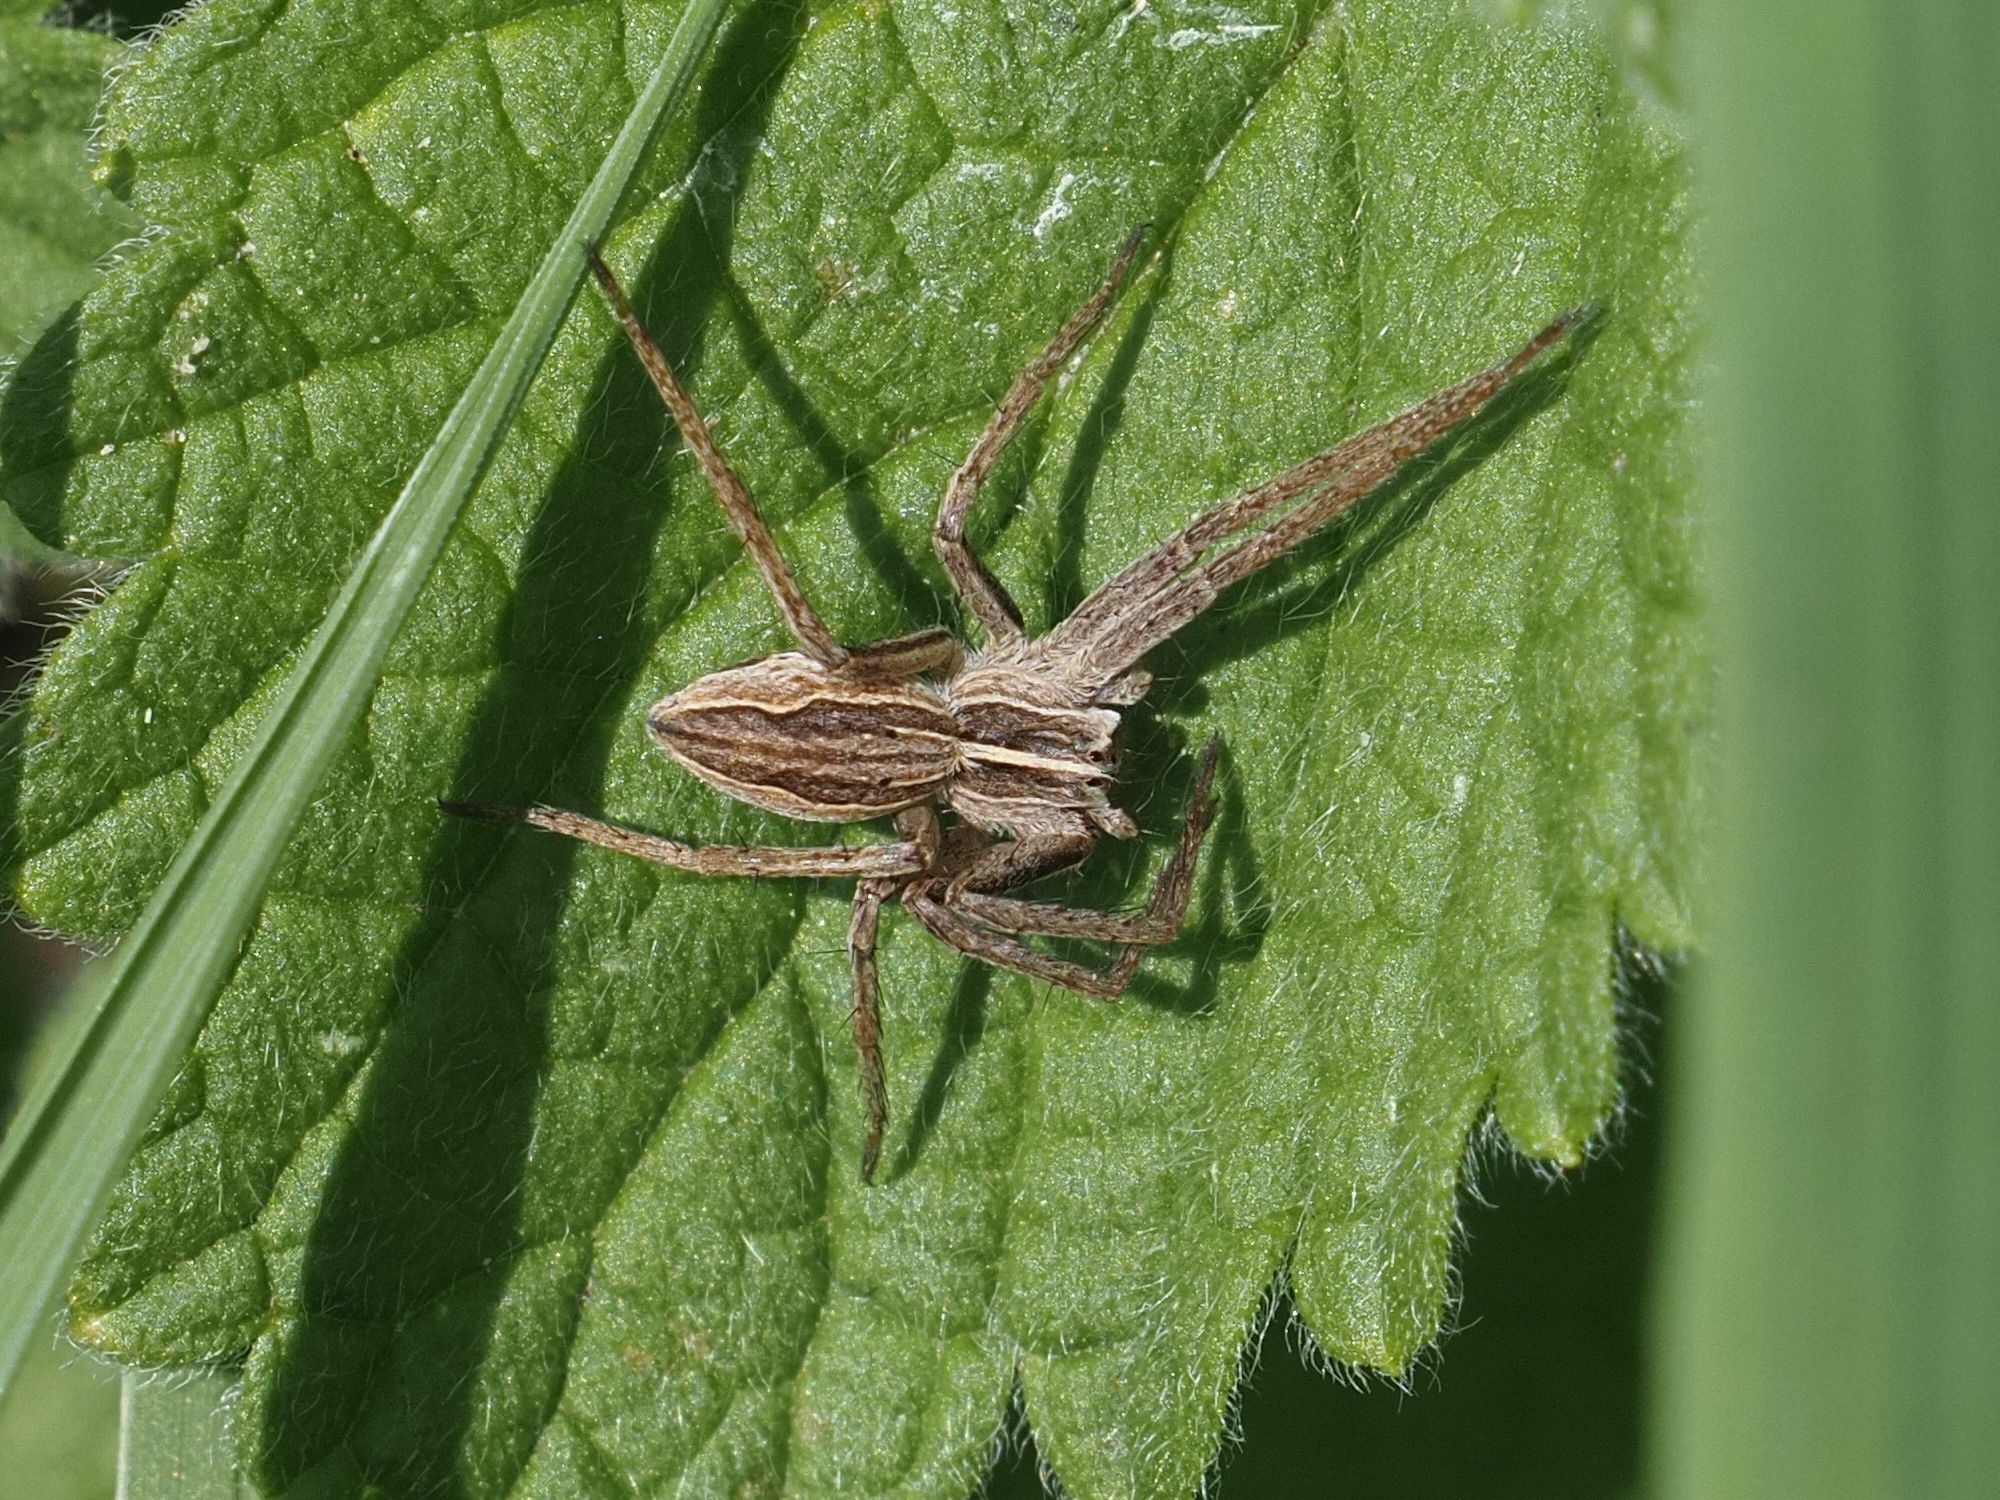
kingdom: Animalia
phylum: Arthropoda
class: Arachnida
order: Araneae
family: Pisauridae
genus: Pisaura
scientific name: Pisaura mirabilis
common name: Tent spider
